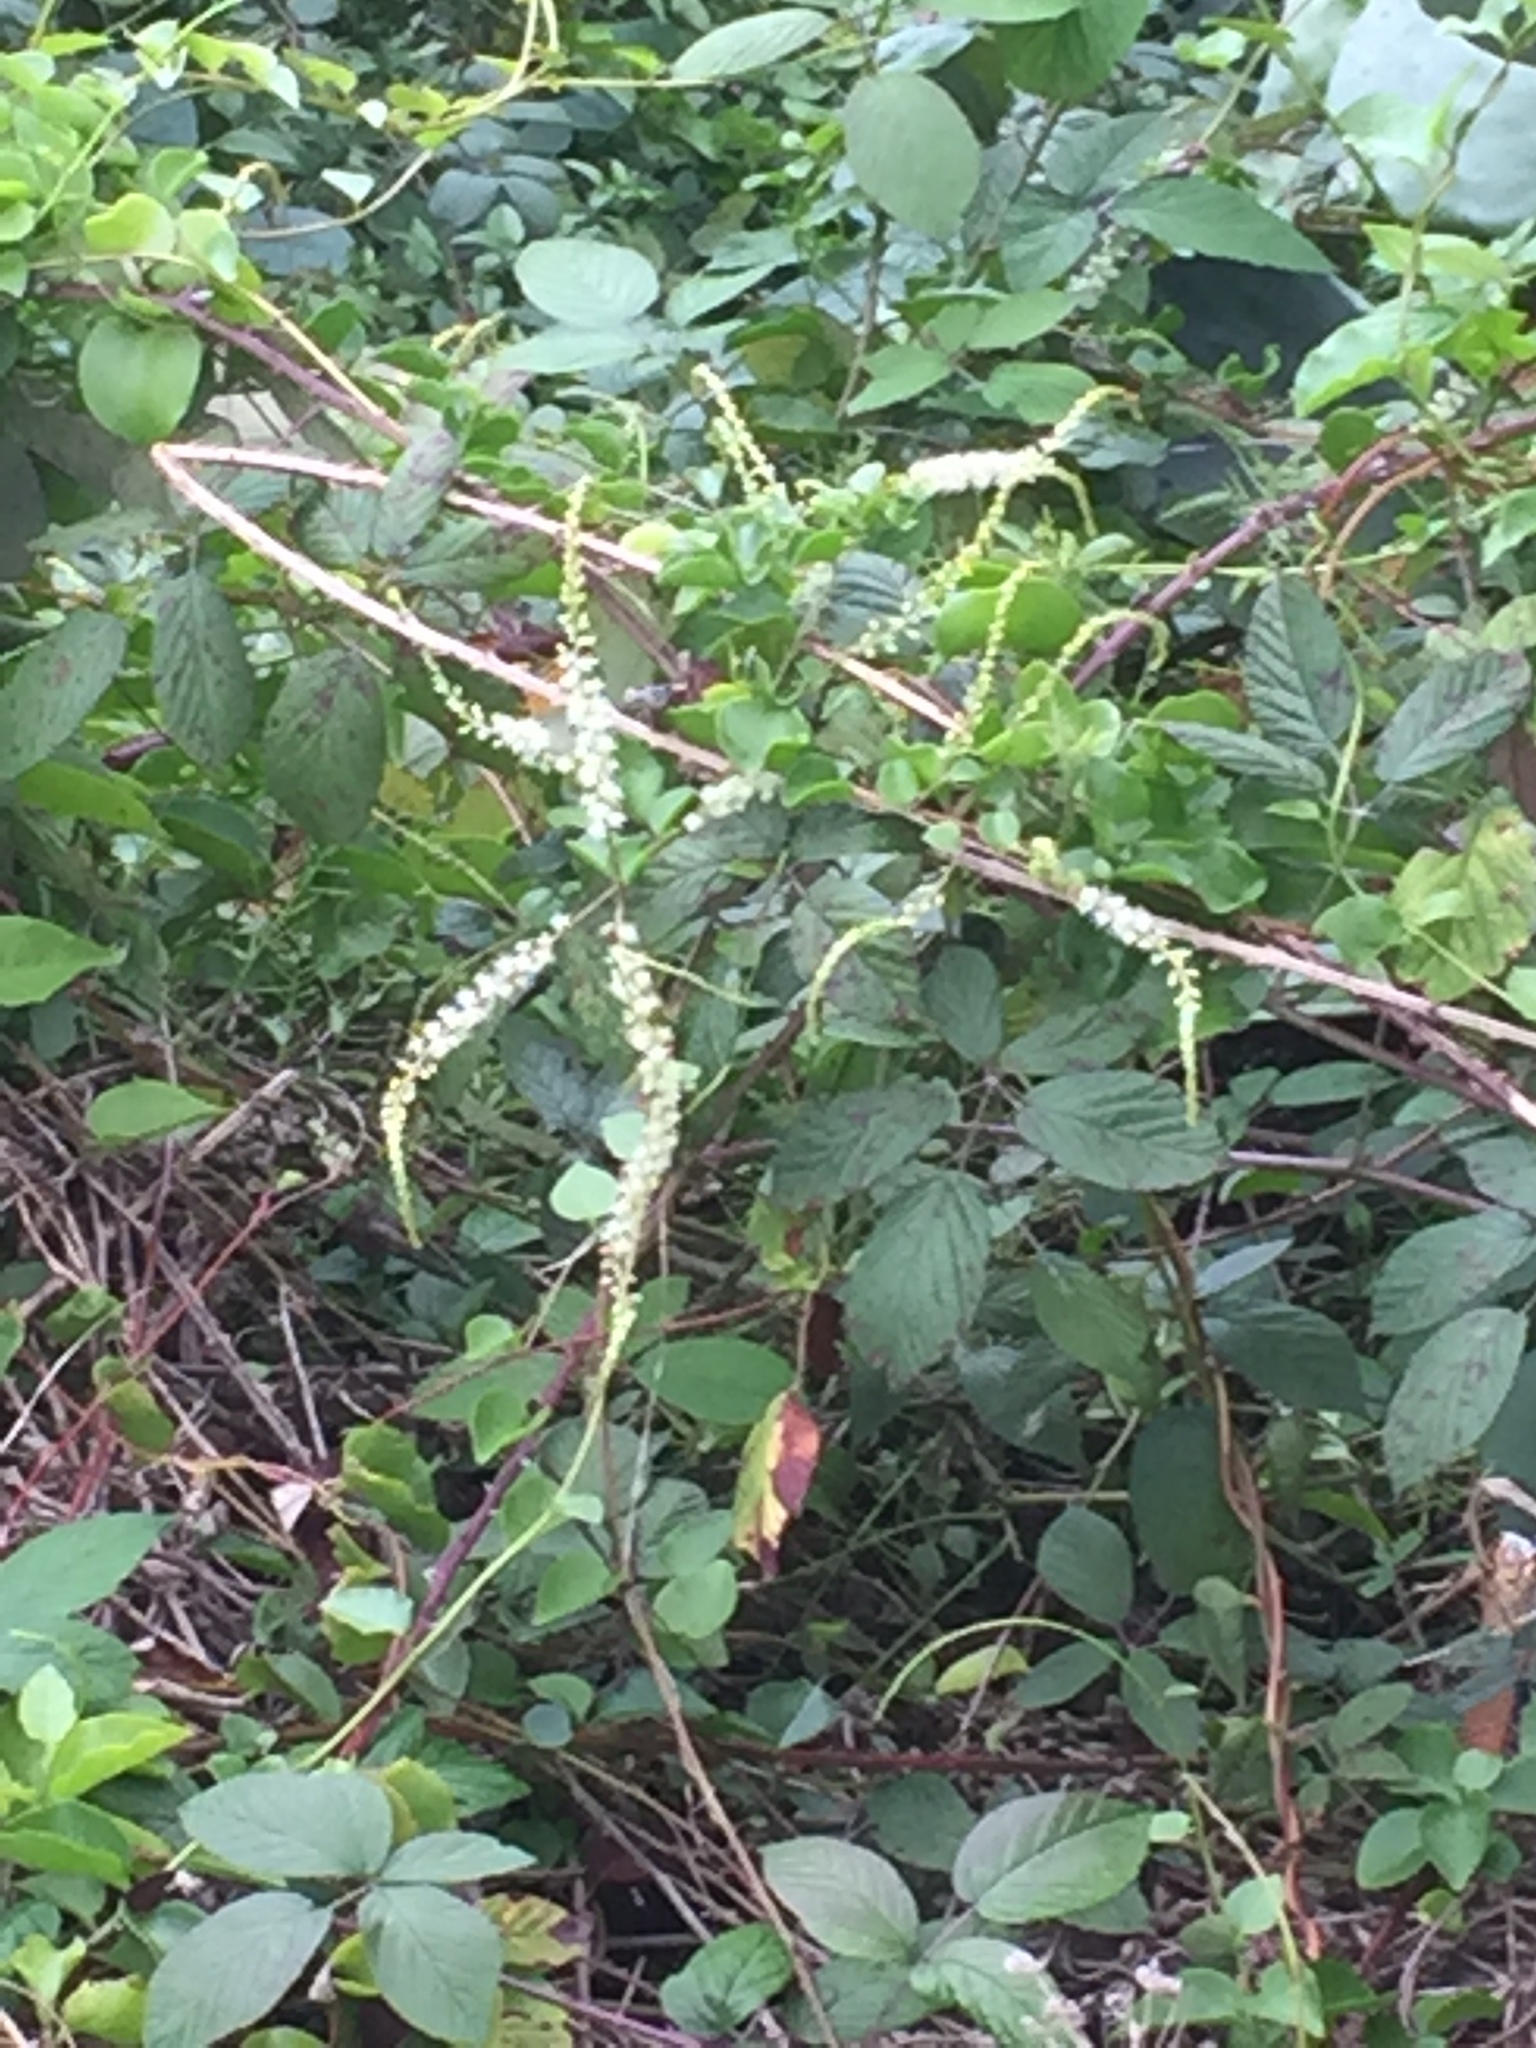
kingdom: Plantae
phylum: Tracheophyta
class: Magnoliopsida
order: Caryophyllales
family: Basellaceae
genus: Anredera
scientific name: Anredera cordifolia
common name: Heartleaf madeiravine
